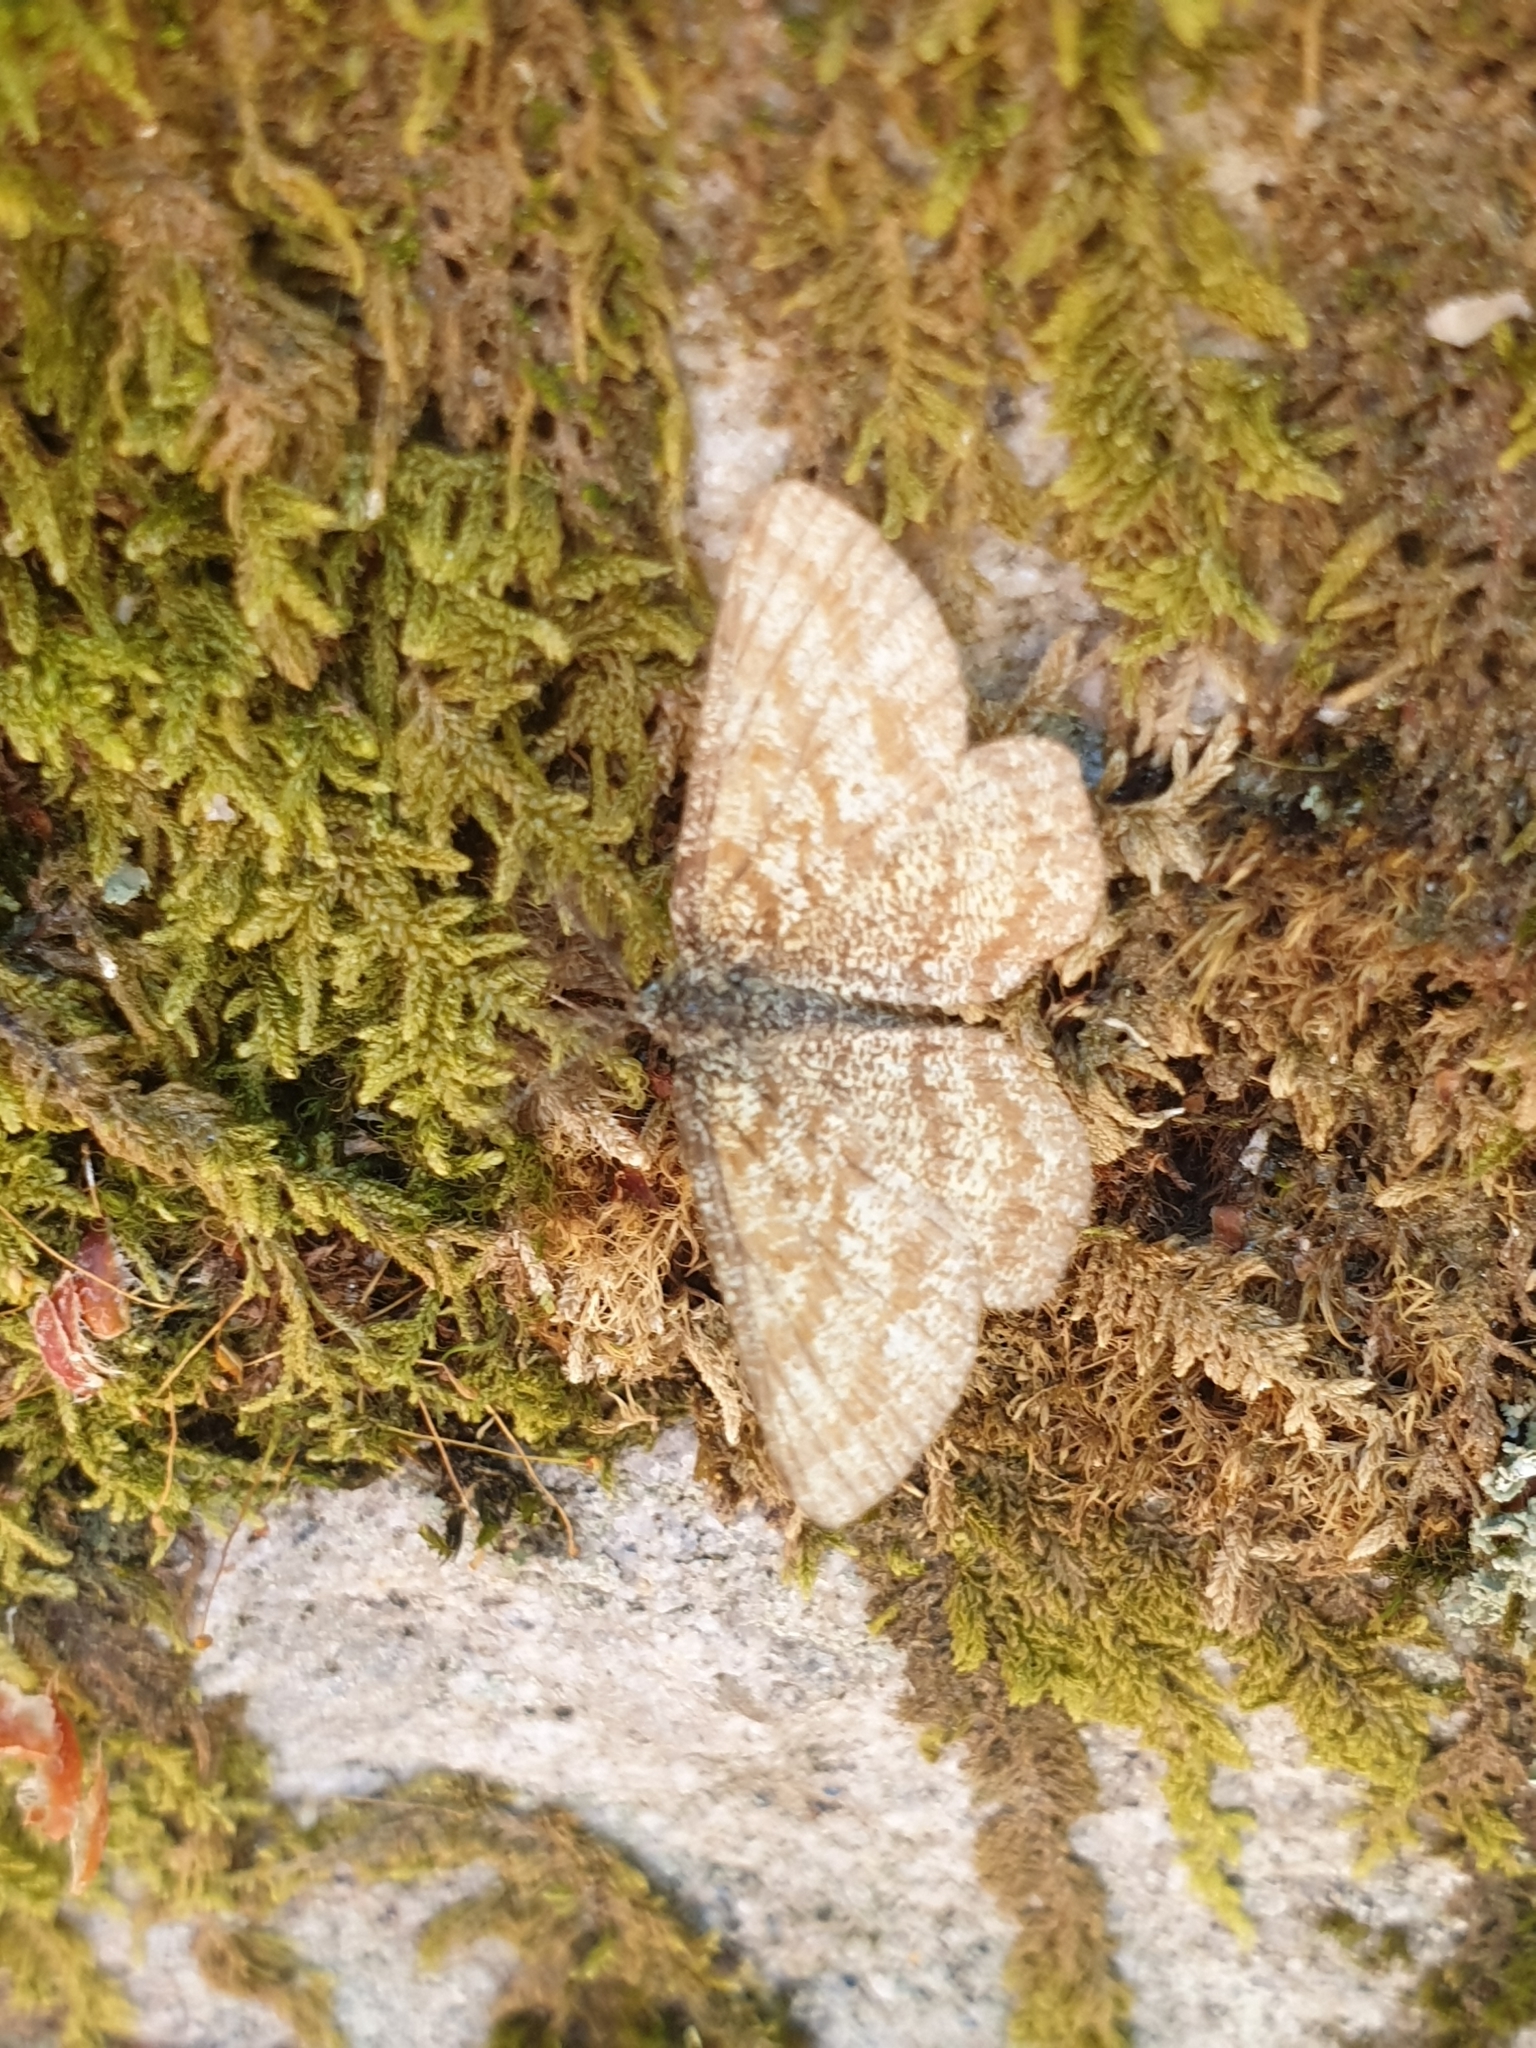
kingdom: Animalia
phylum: Arthropoda
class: Insecta
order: Lepidoptera
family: Geometridae
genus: Ematurga
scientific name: Ematurga atomaria
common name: Common heath
